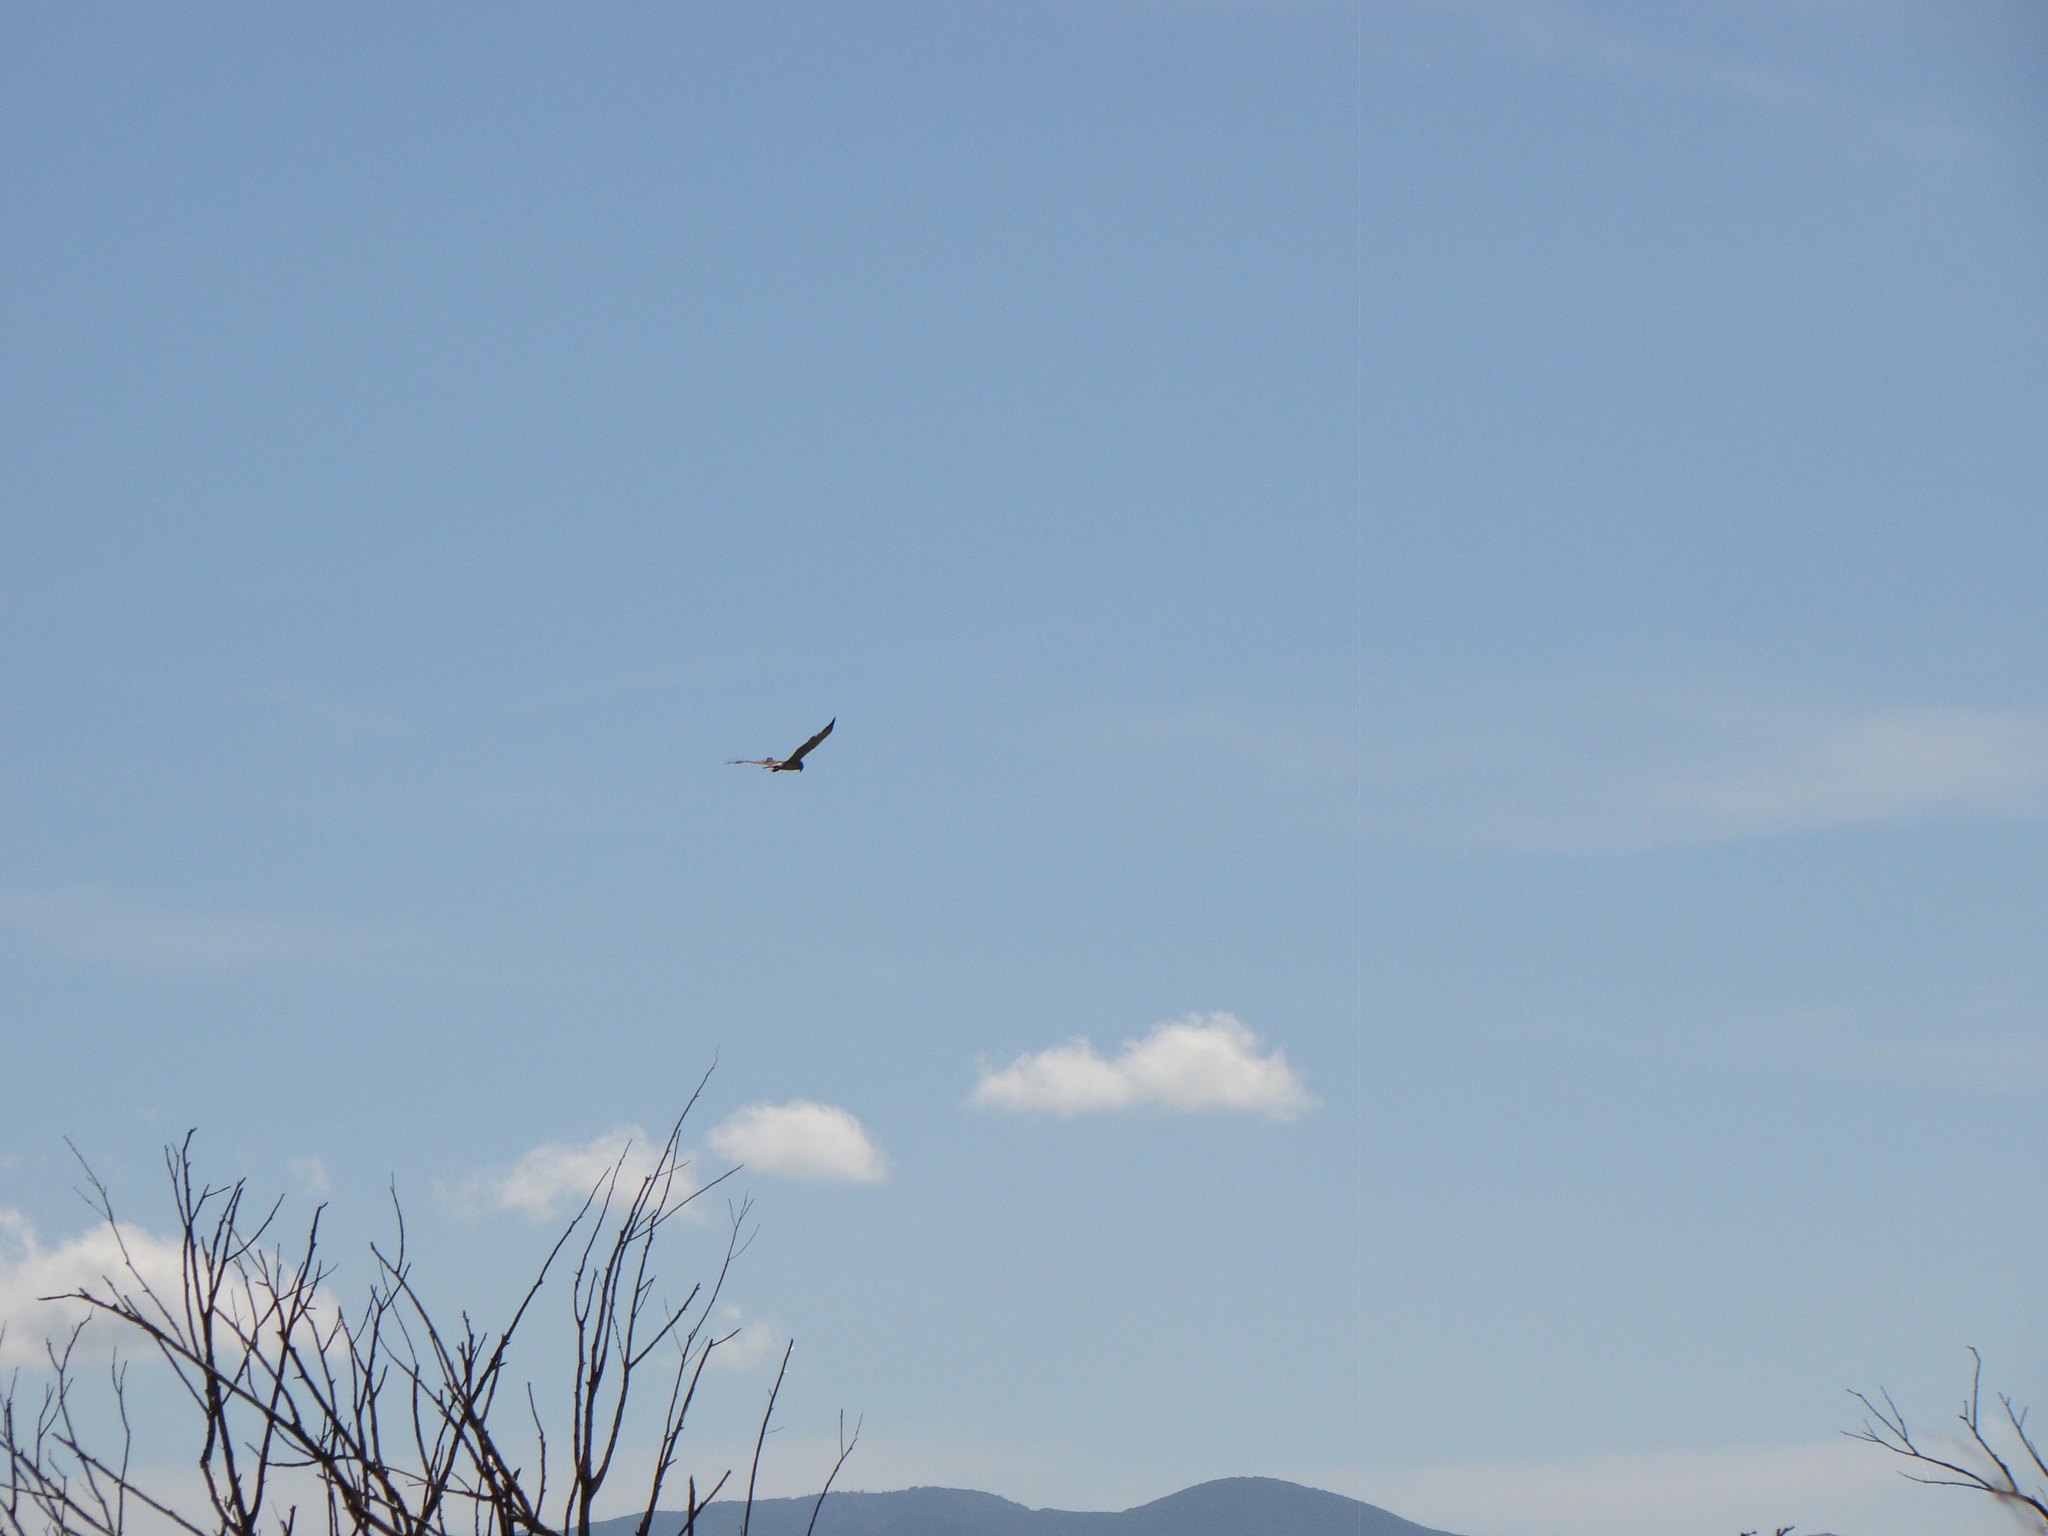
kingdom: Animalia
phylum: Chordata
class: Aves
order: Accipitriformes
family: Accipitridae
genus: Circus
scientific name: Circus approximans
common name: Swamp harrier
